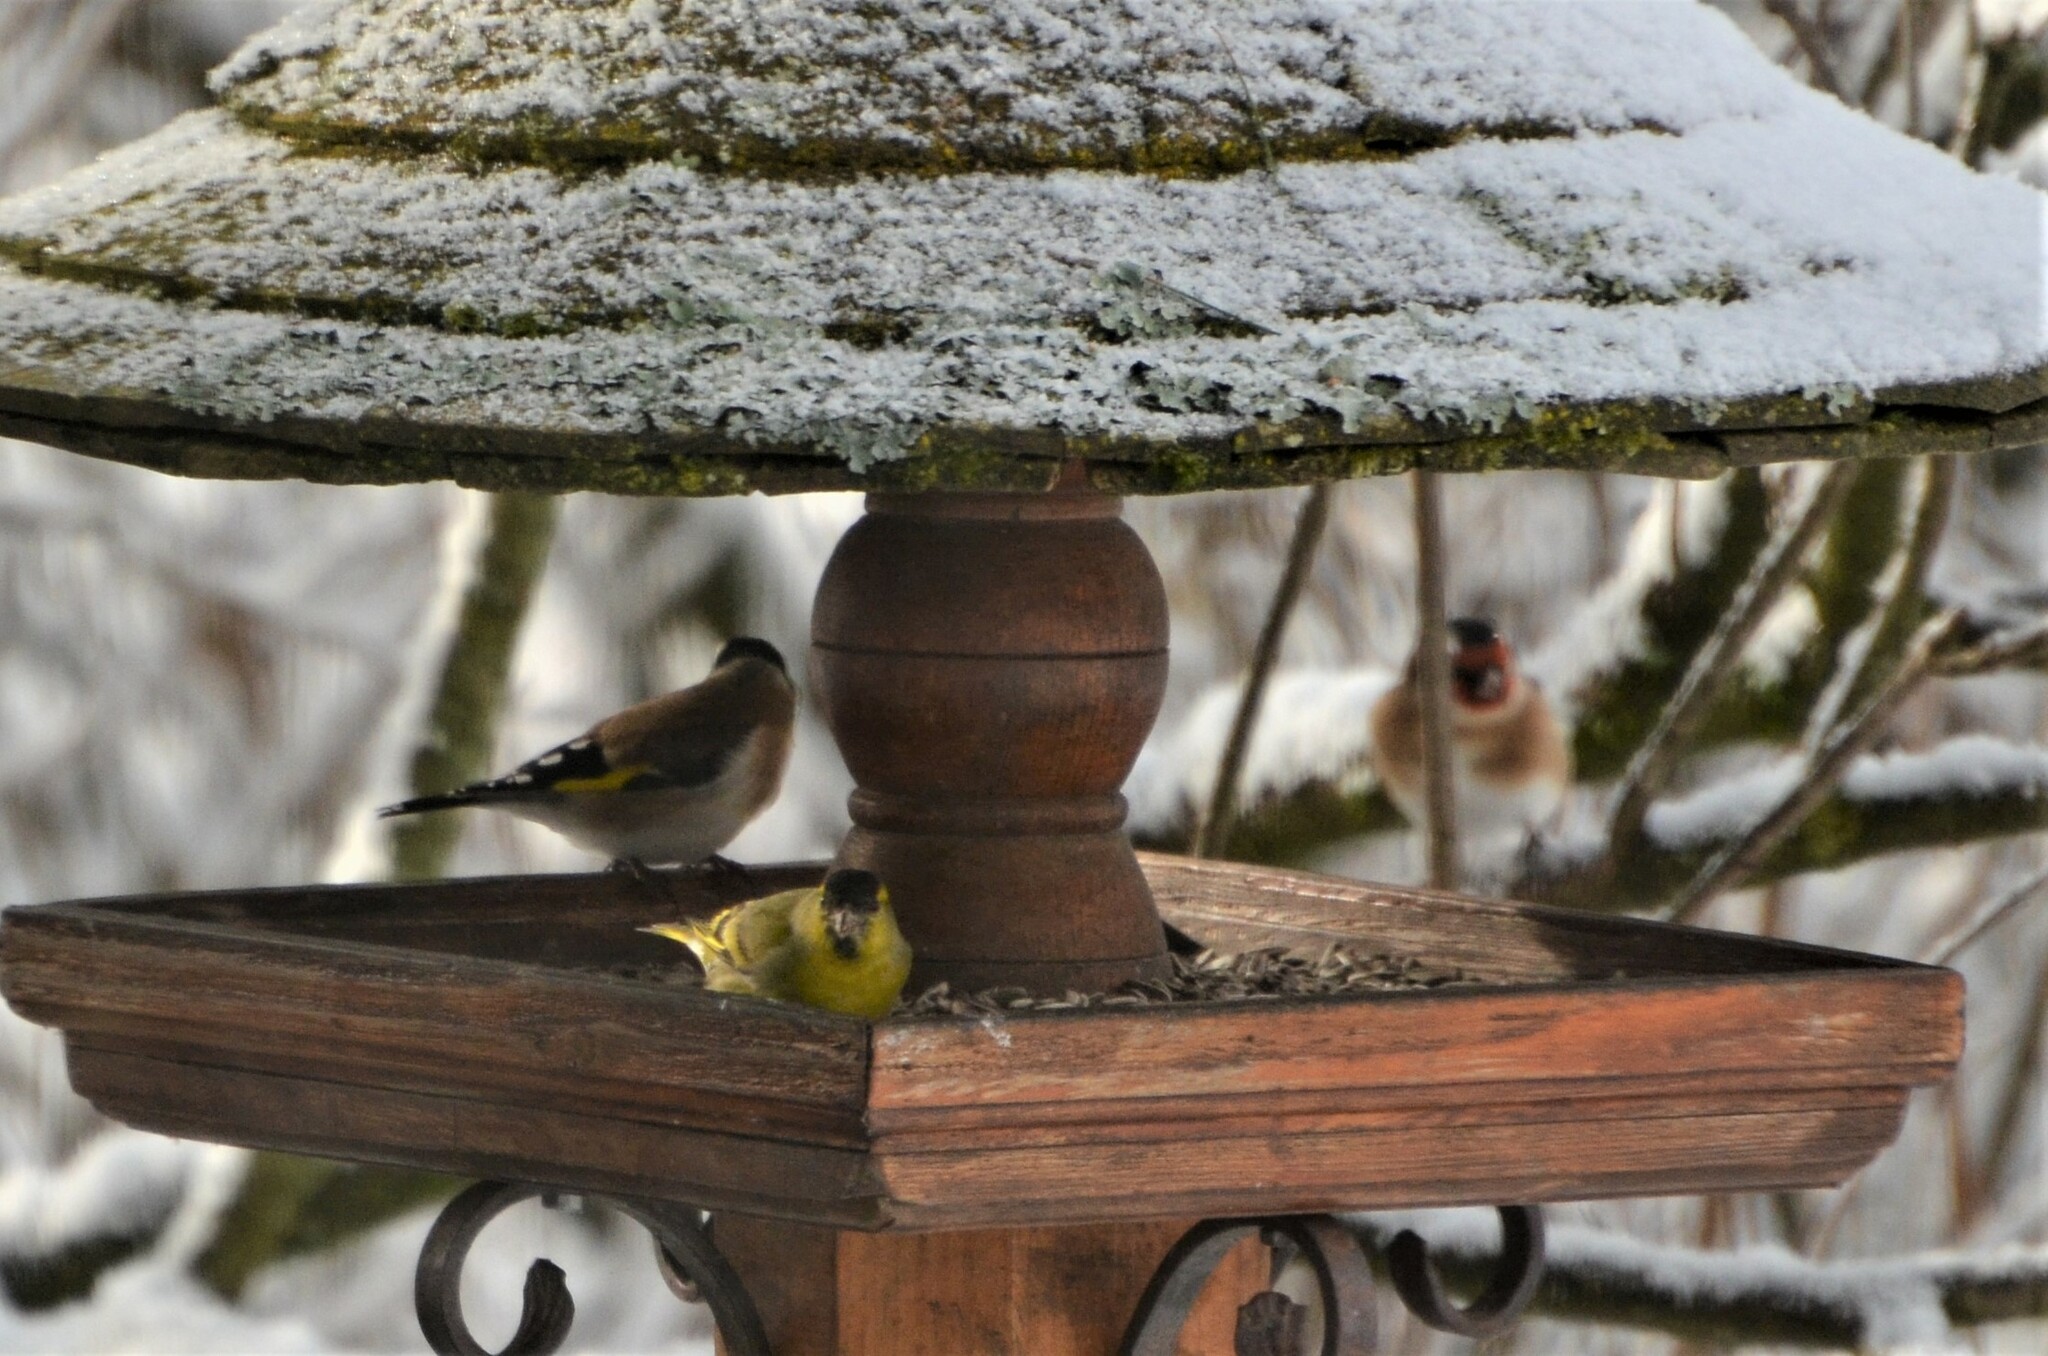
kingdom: Animalia
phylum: Chordata
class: Aves
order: Passeriformes
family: Fringillidae
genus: Carduelis
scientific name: Carduelis carduelis
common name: European goldfinch
